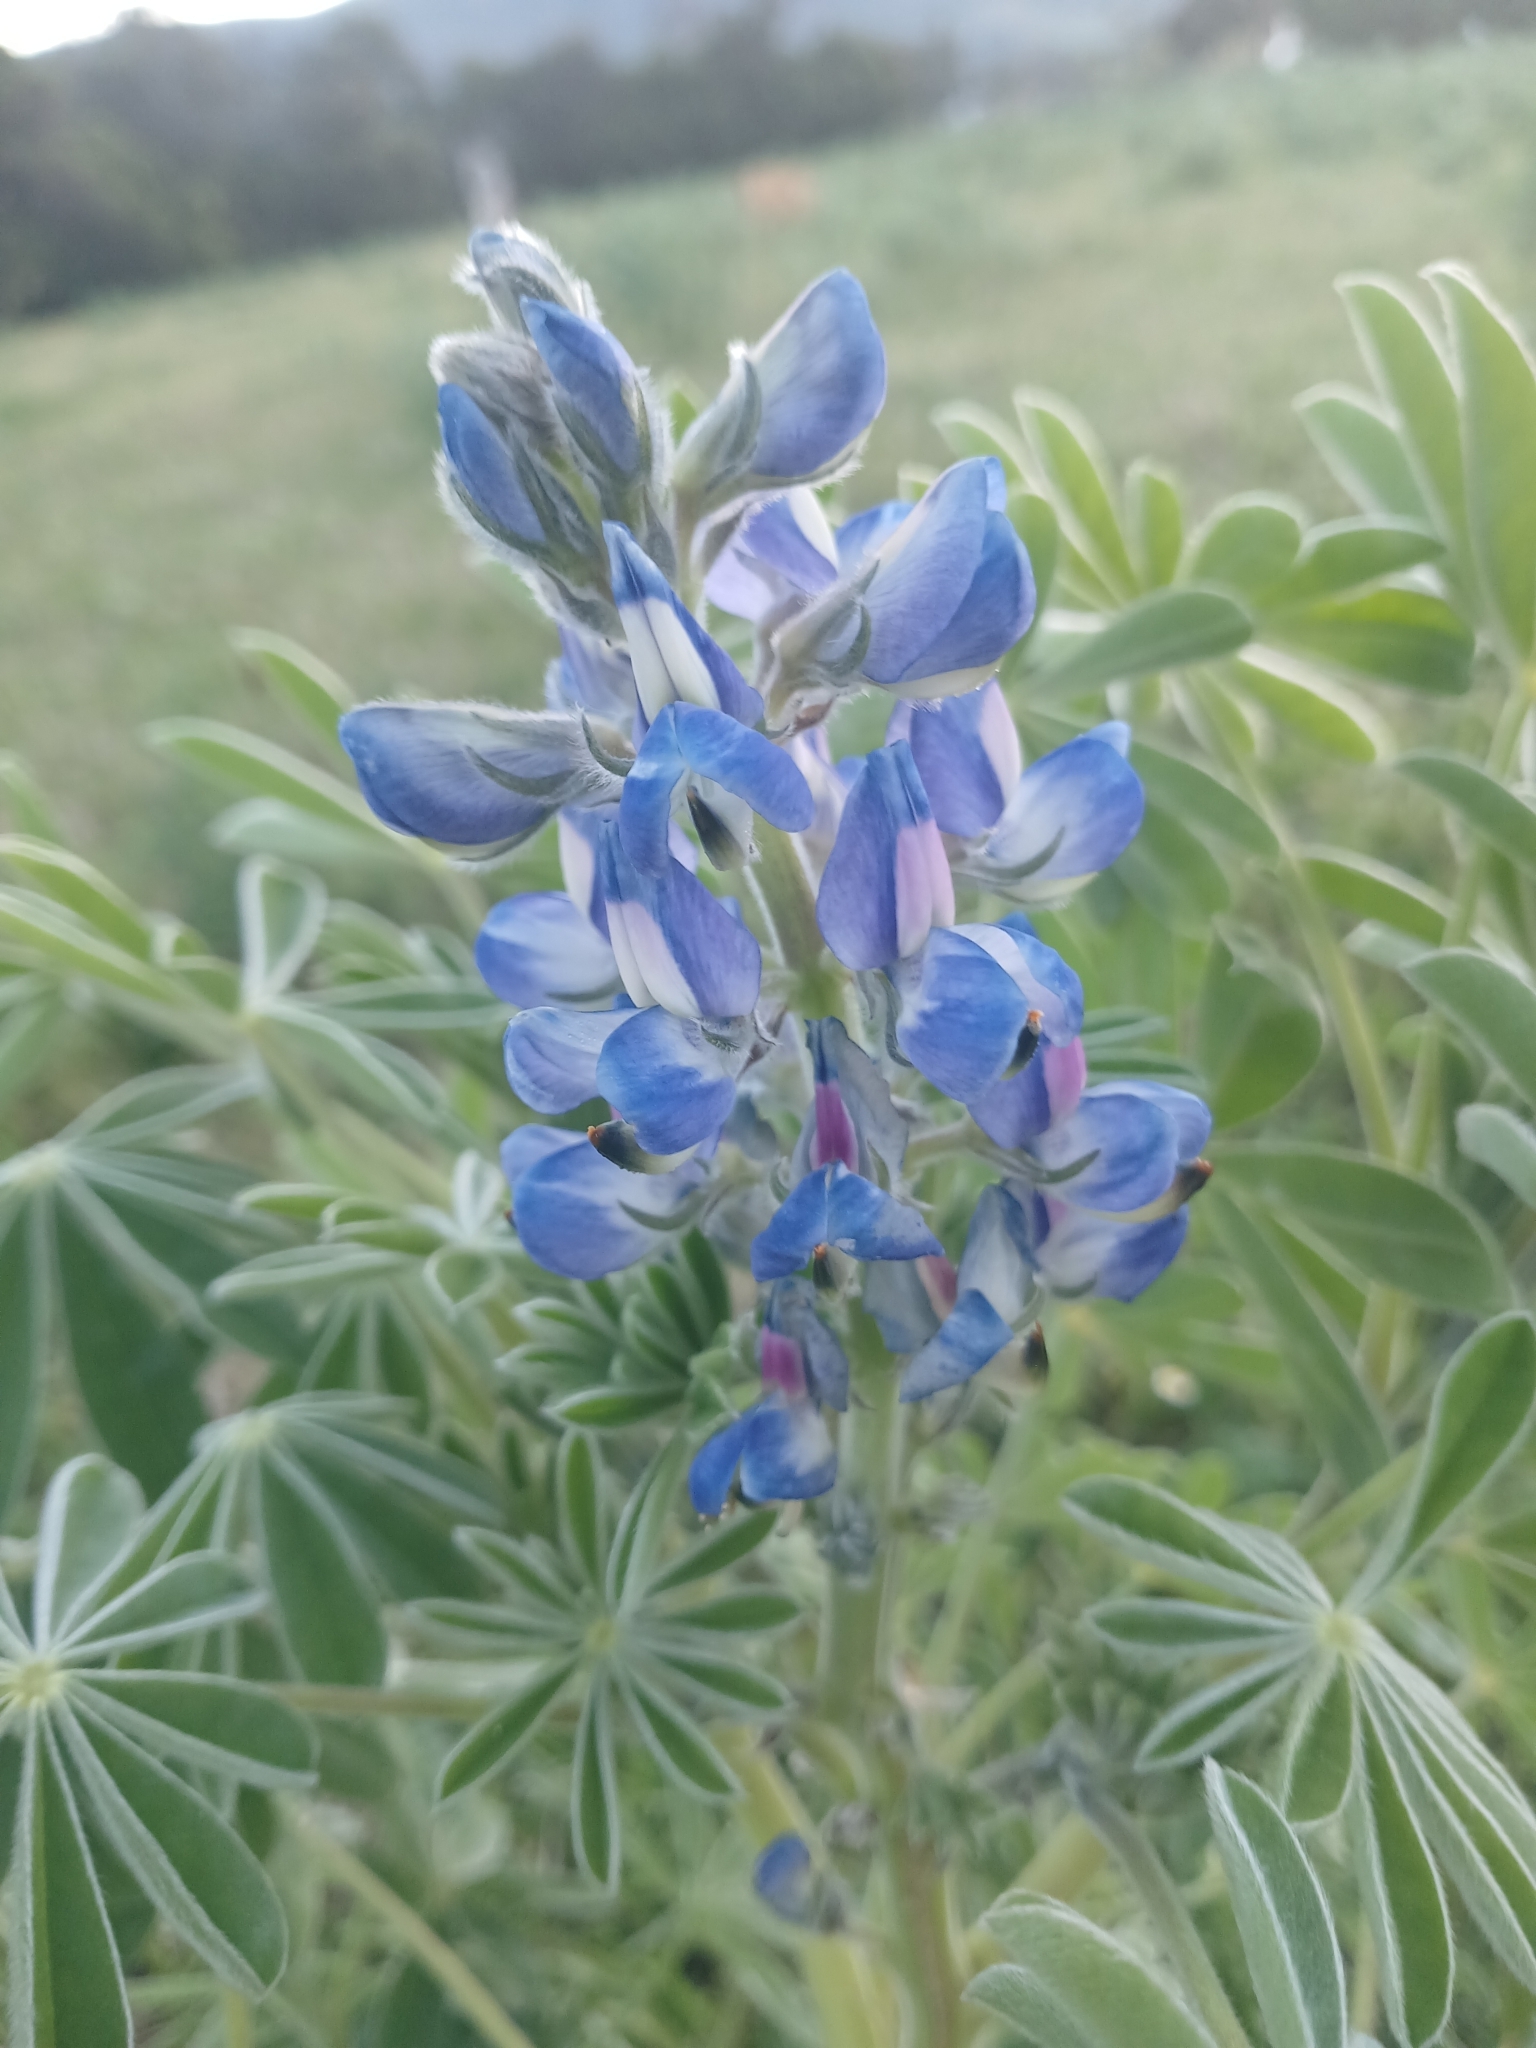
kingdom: Plantae
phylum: Tracheophyta
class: Magnoliopsida
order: Fabales
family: Fabaceae
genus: Lupinus
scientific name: Lupinus cosentinii
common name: Hairy blue lupin
